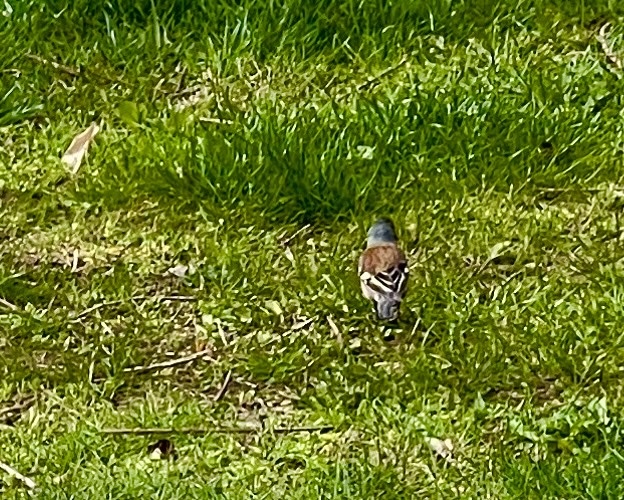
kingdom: Animalia
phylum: Chordata
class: Aves
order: Passeriformes
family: Fringillidae
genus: Fringilla
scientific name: Fringilla coelebs
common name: Common chaffinch
